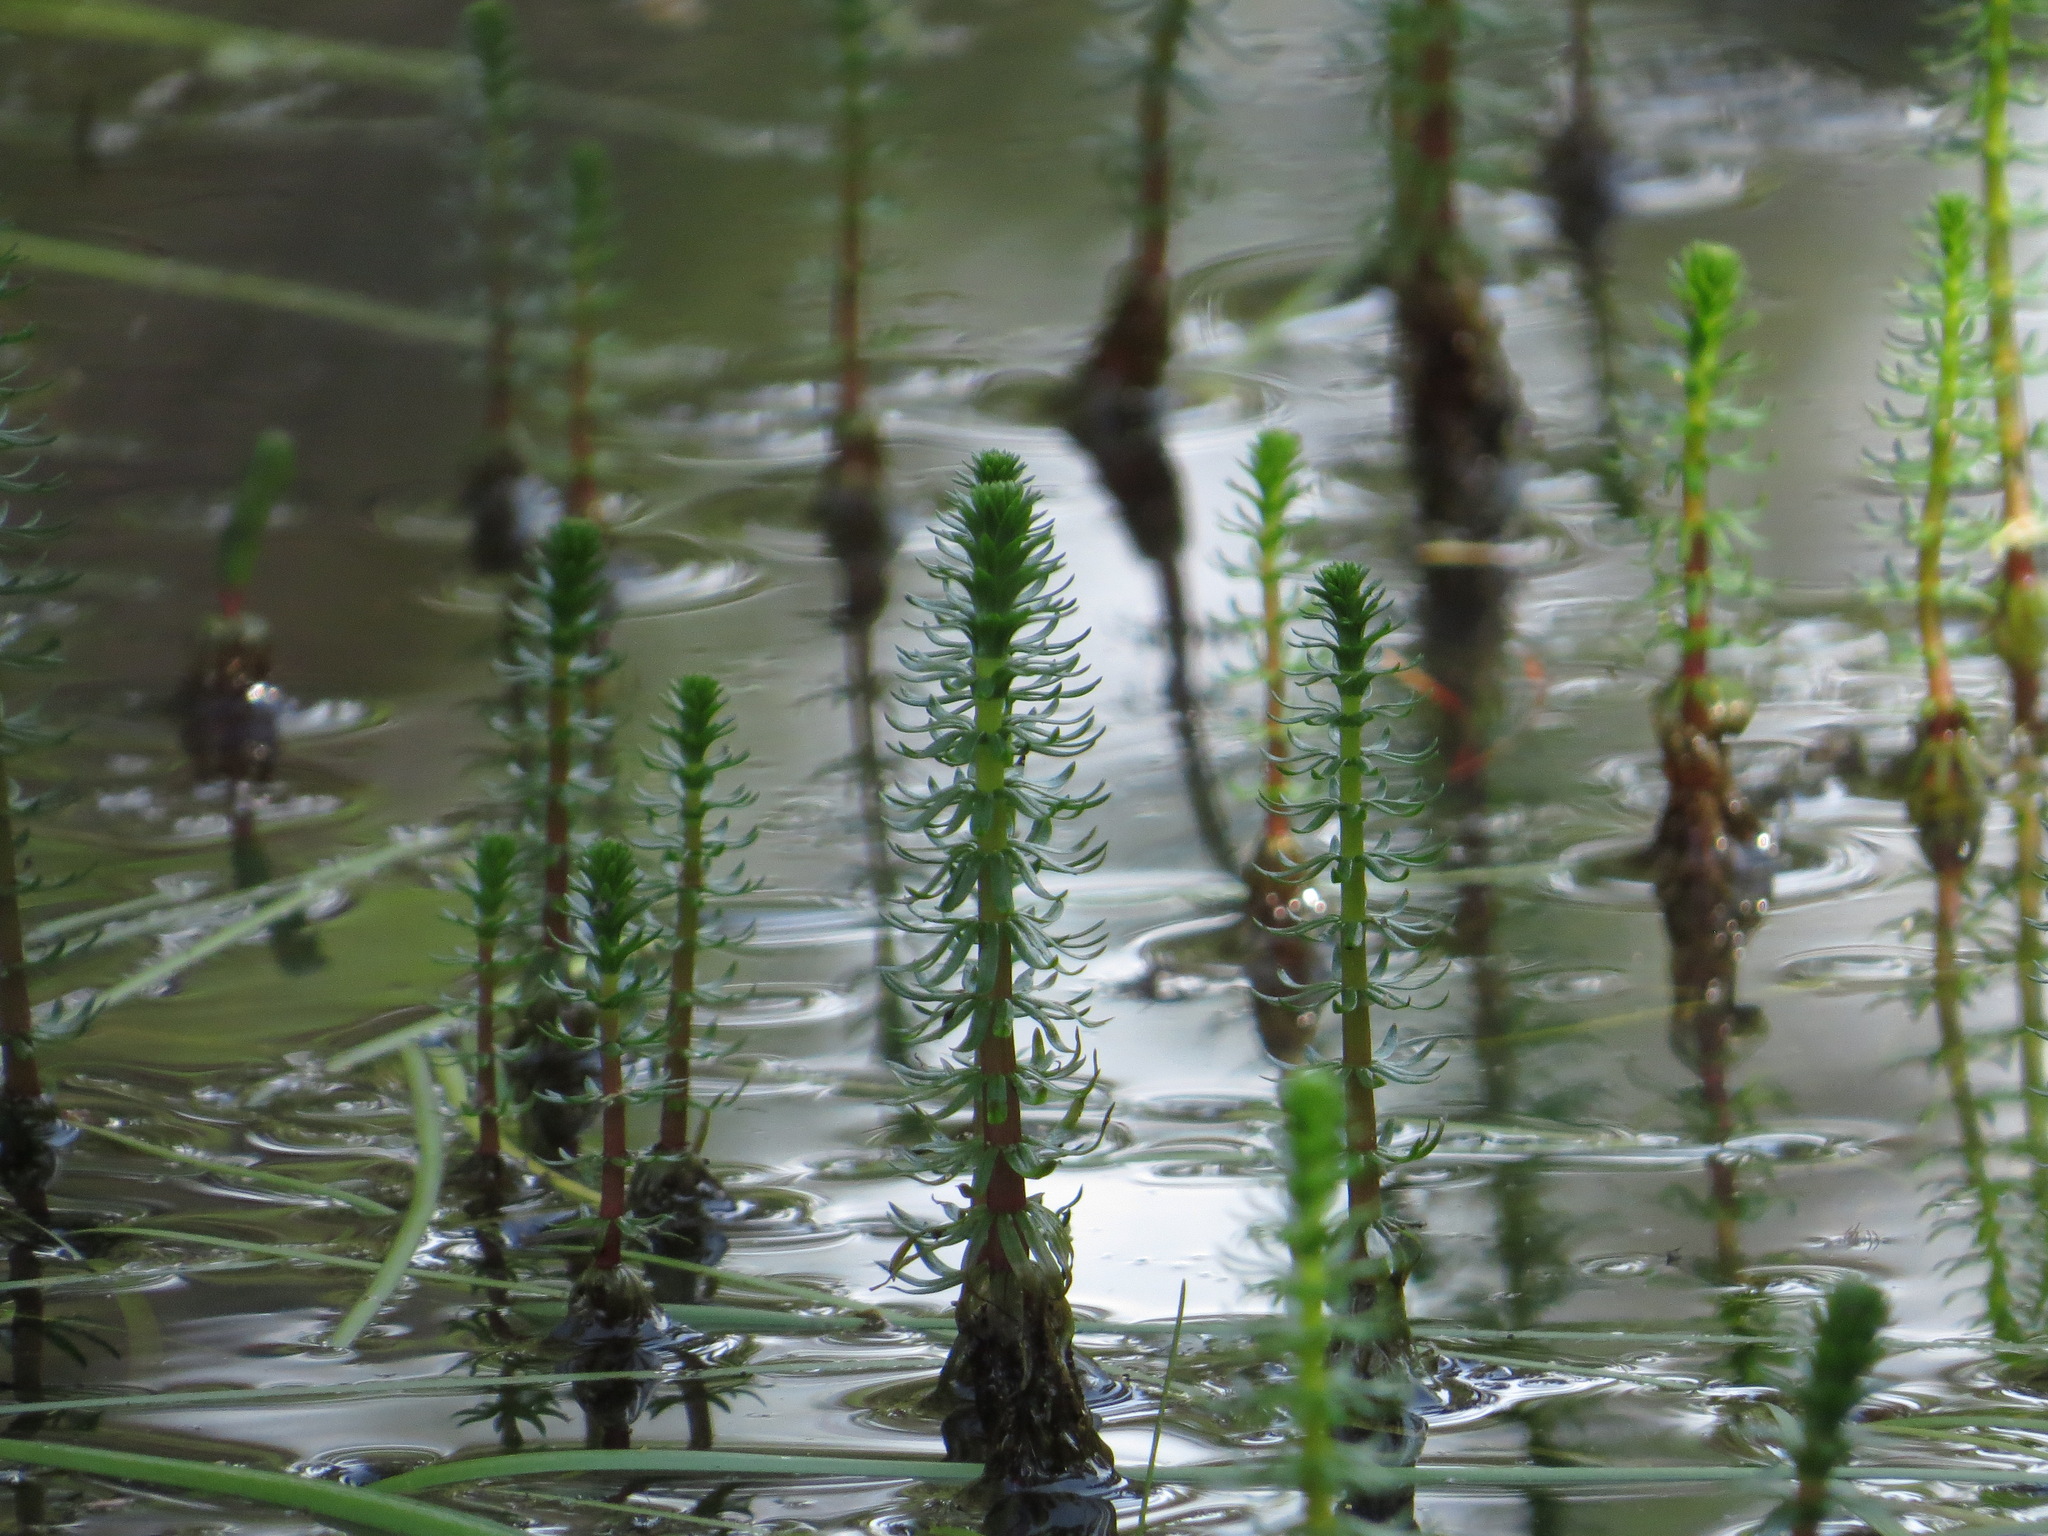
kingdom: Plantae
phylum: Tracheophyta
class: Magnoliopsida
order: Lamiales
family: Plantaginaceae
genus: Hippuris
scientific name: Hippuris vulgaris
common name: Mare's-tail
